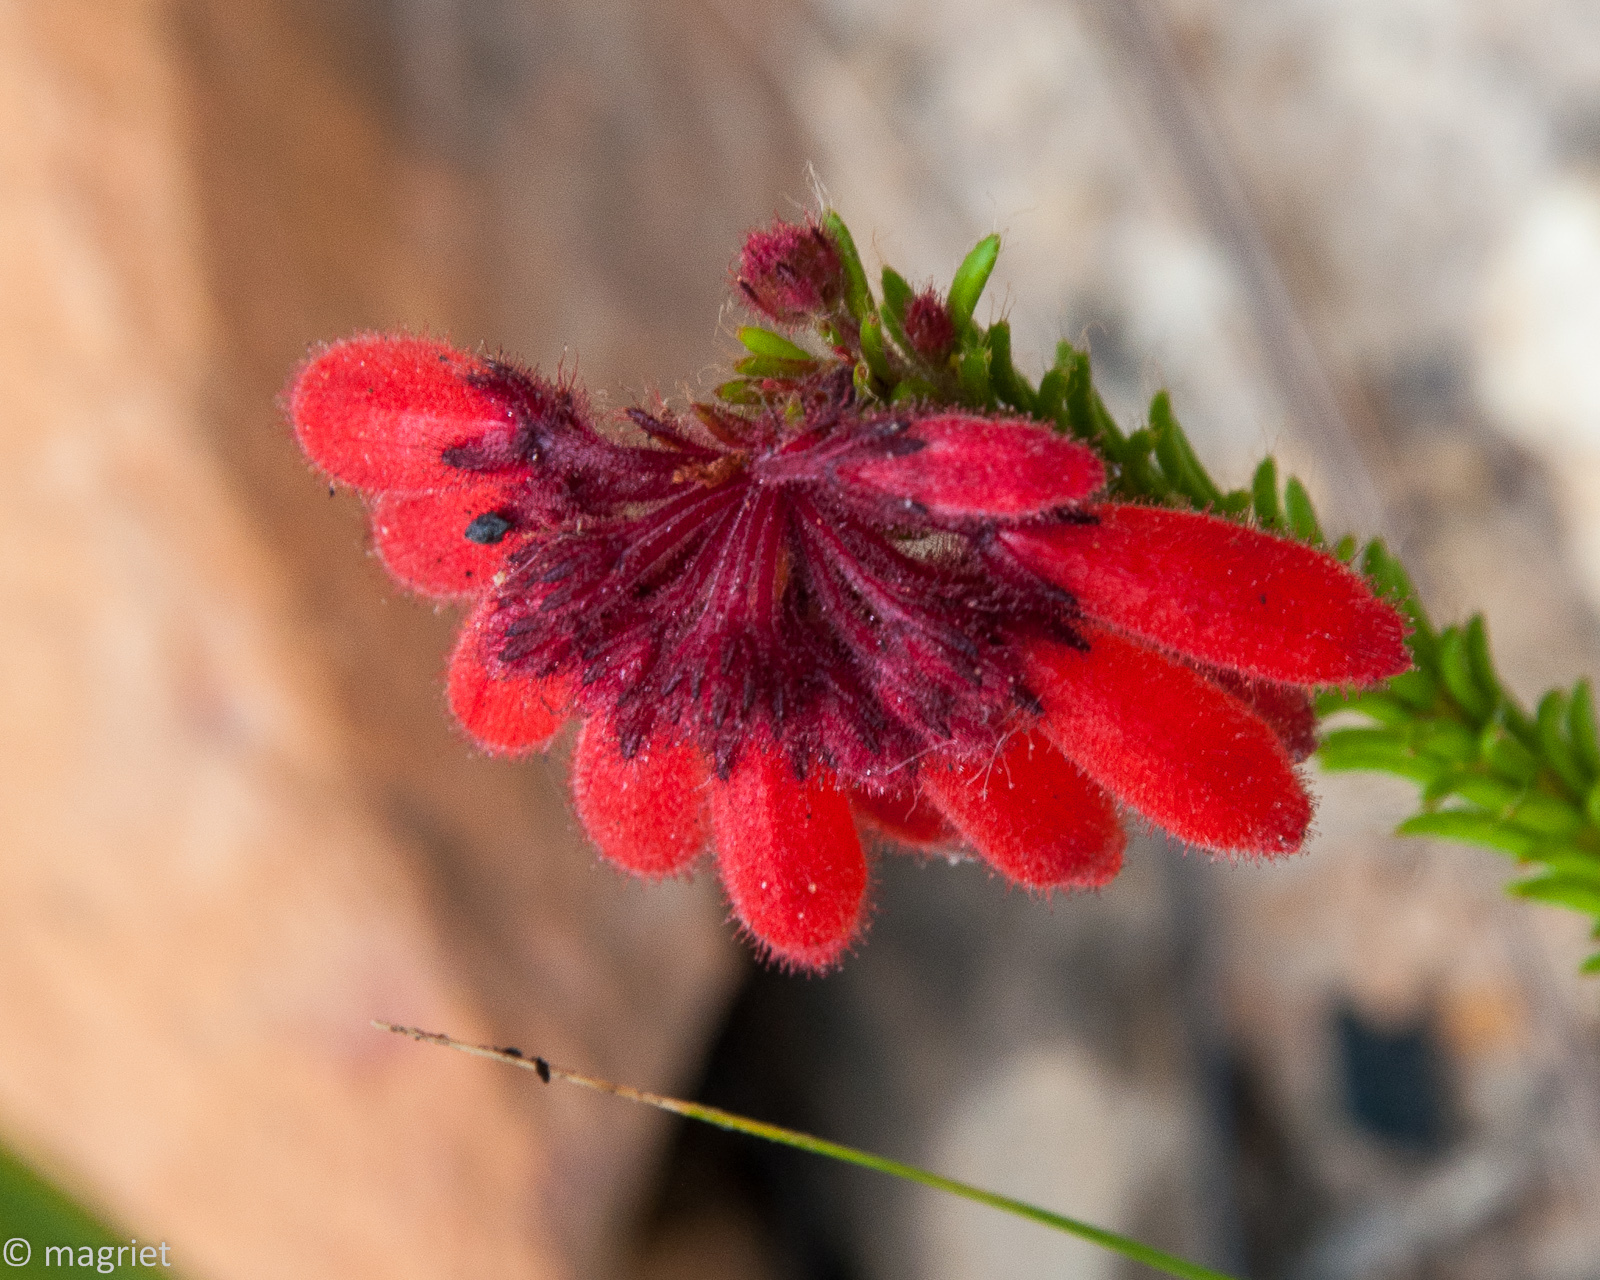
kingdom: Plantae
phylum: Tracheophyta
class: Magnoliopsida
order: Ericales
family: Ericaceae
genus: Erica
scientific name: Erica cerinthoides
